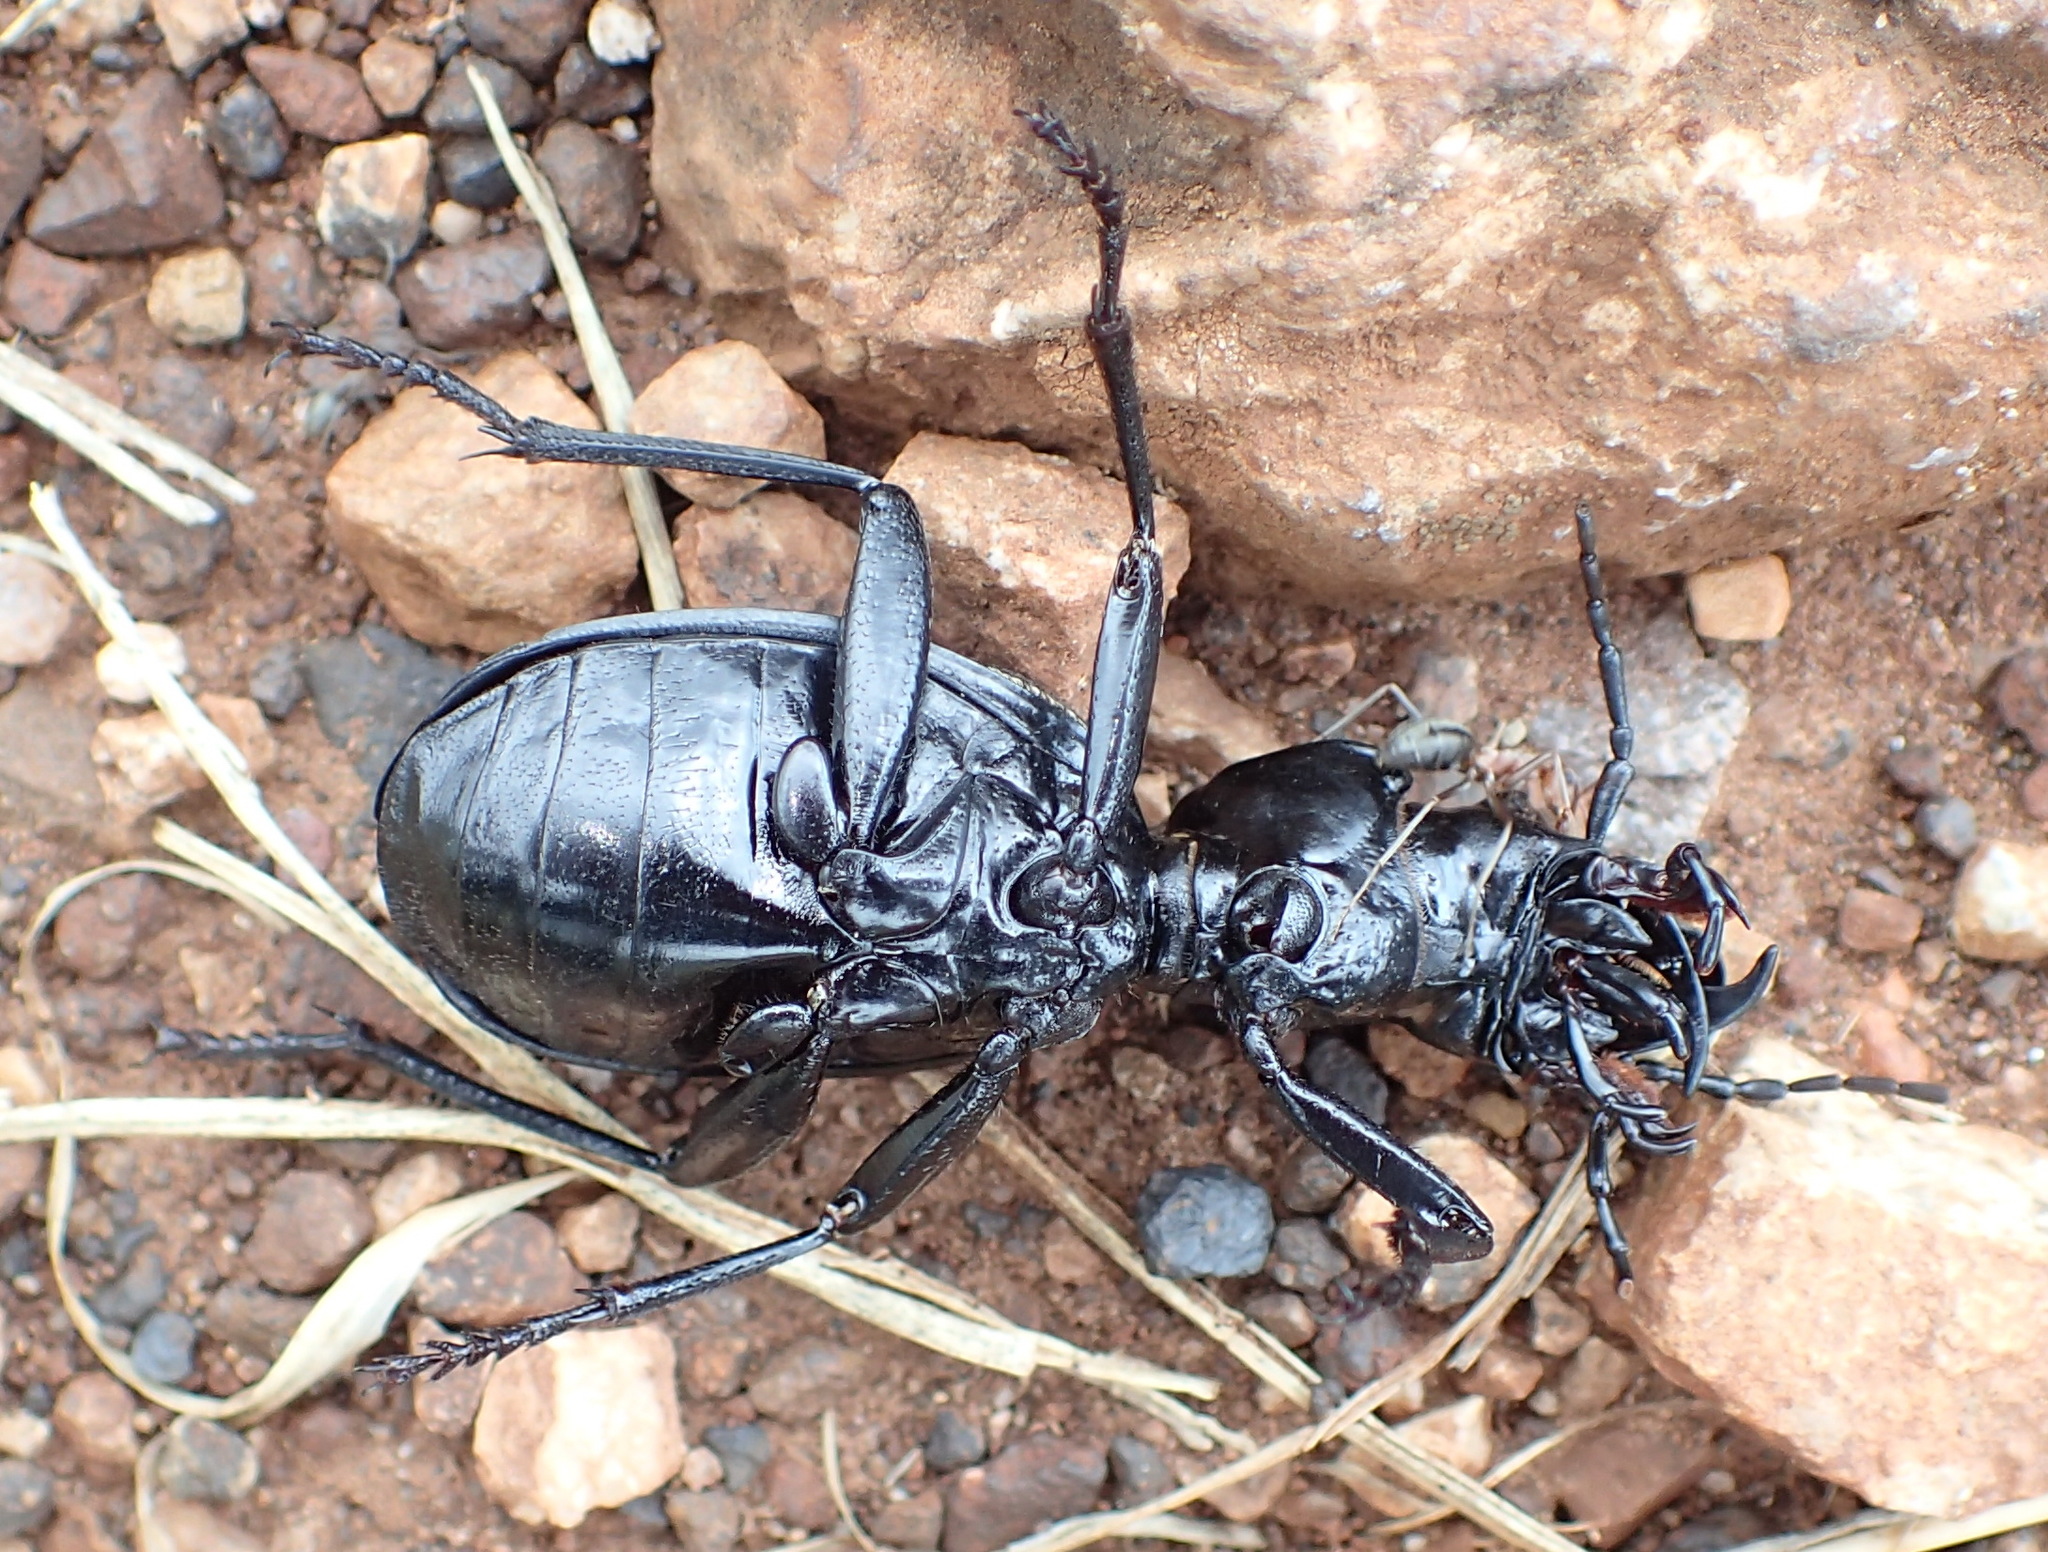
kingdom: Animalia
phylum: Arthropoda
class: Insecta
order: Coleoptera
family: Carabidae
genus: Anthia
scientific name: Anthia cinctipennis
